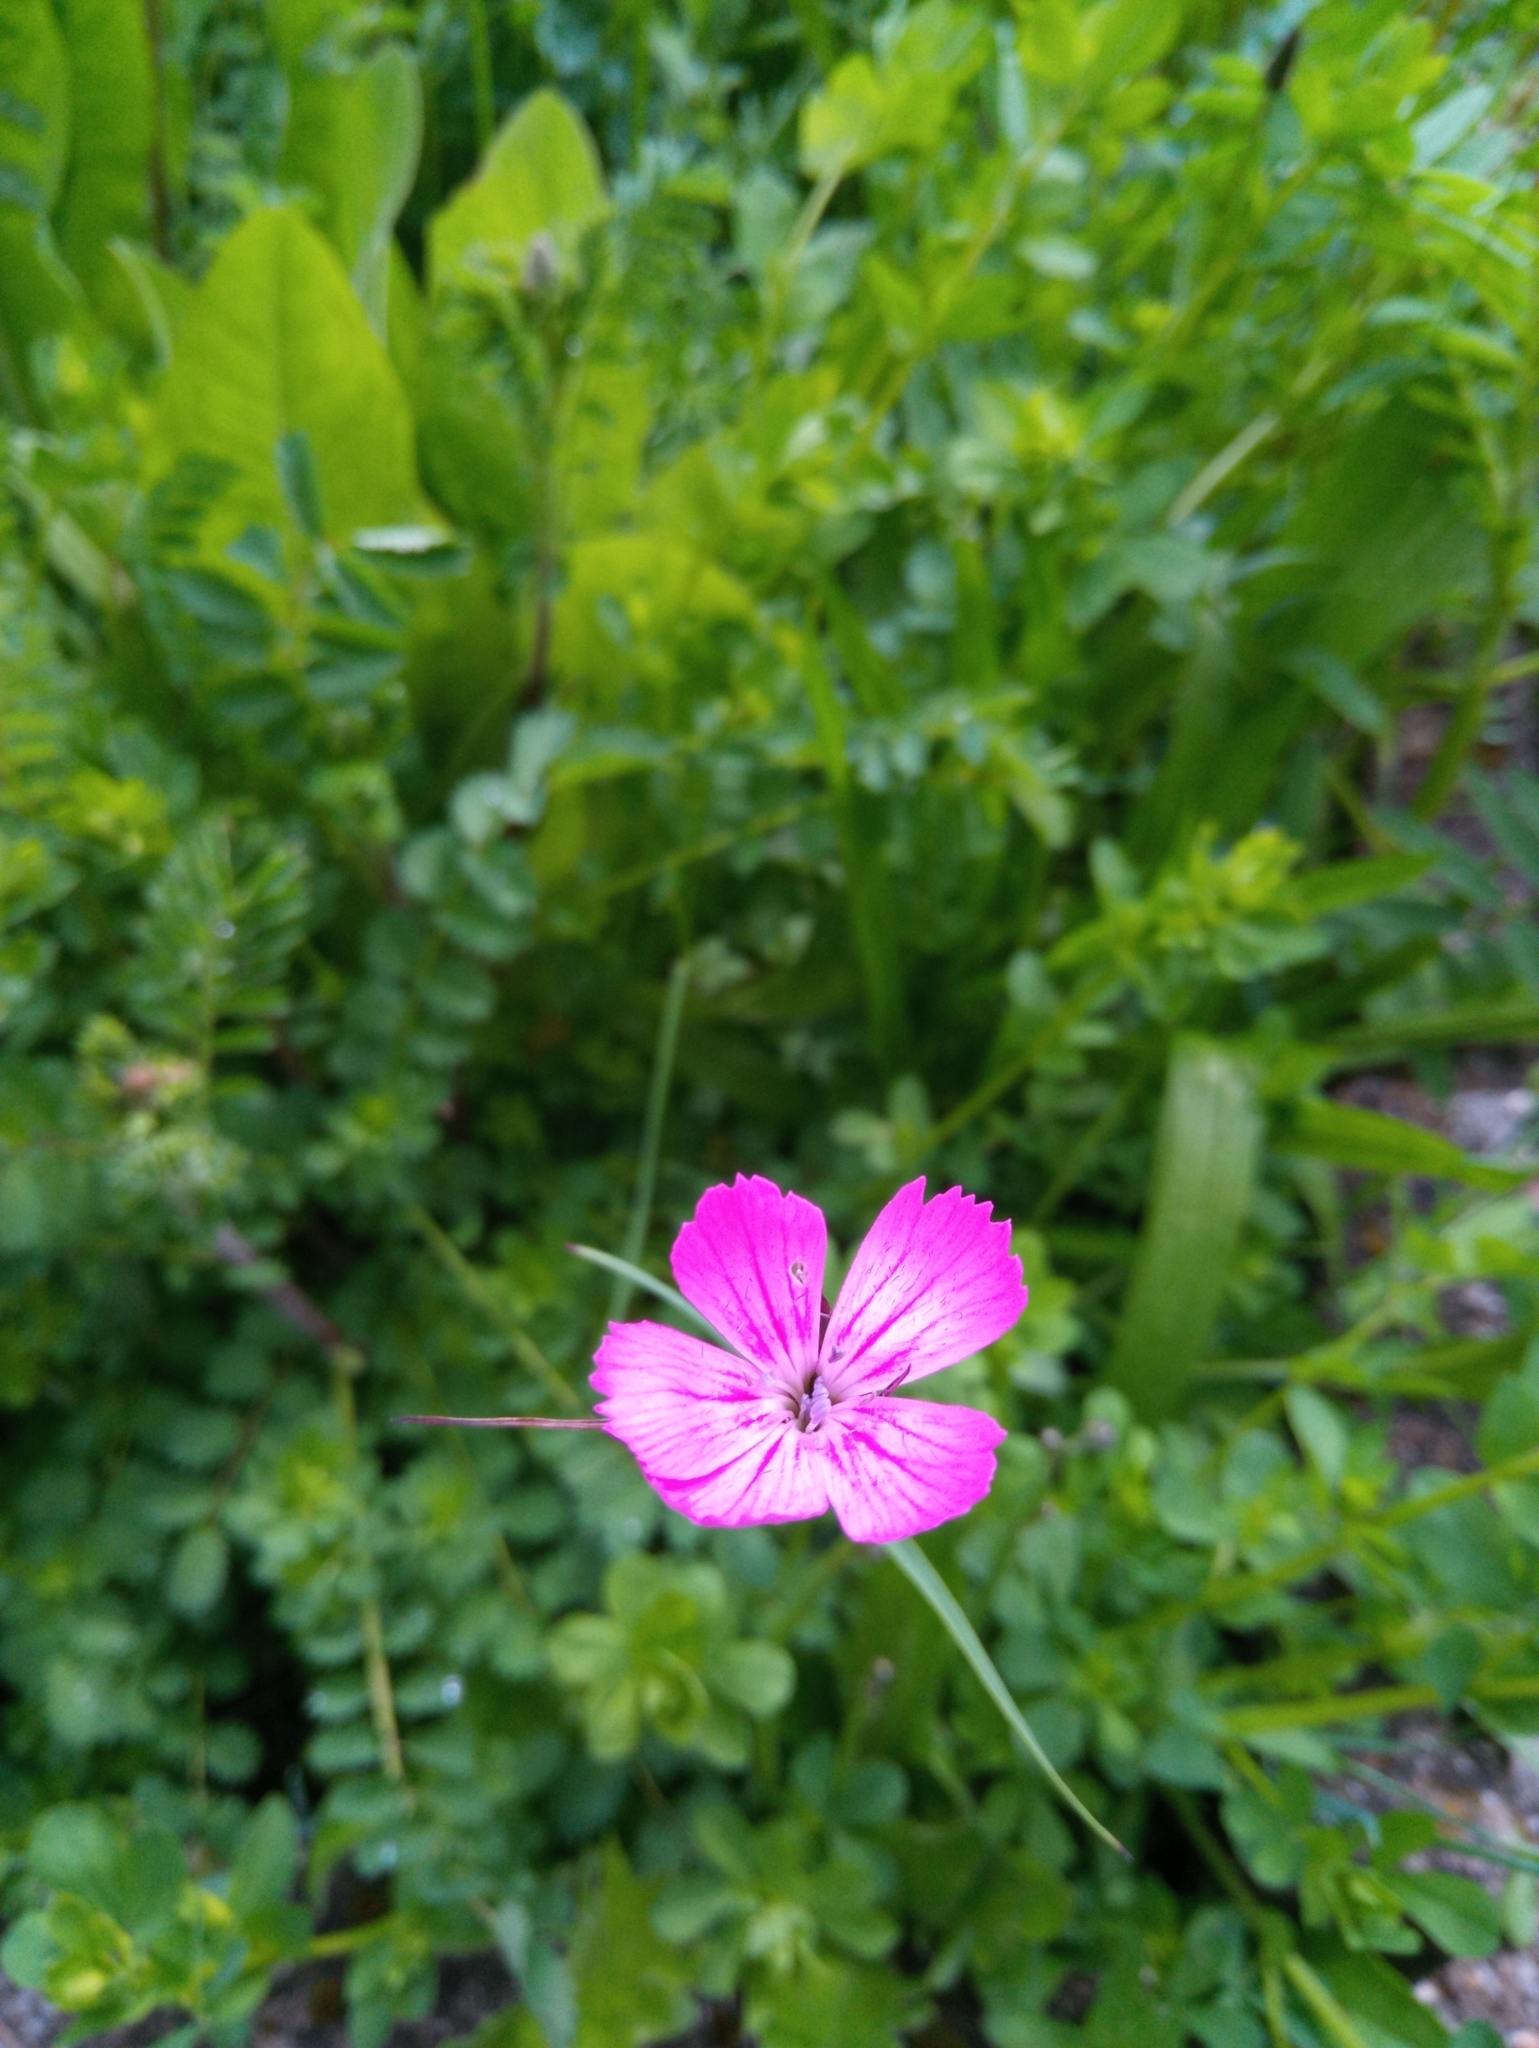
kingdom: Plantae
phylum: Tracheophyta
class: Magnoliopsida
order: Caryophyllales
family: Caryophyllaceae
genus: Dianthus
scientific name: Dianthus carthusianorum
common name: Carthusian pink
